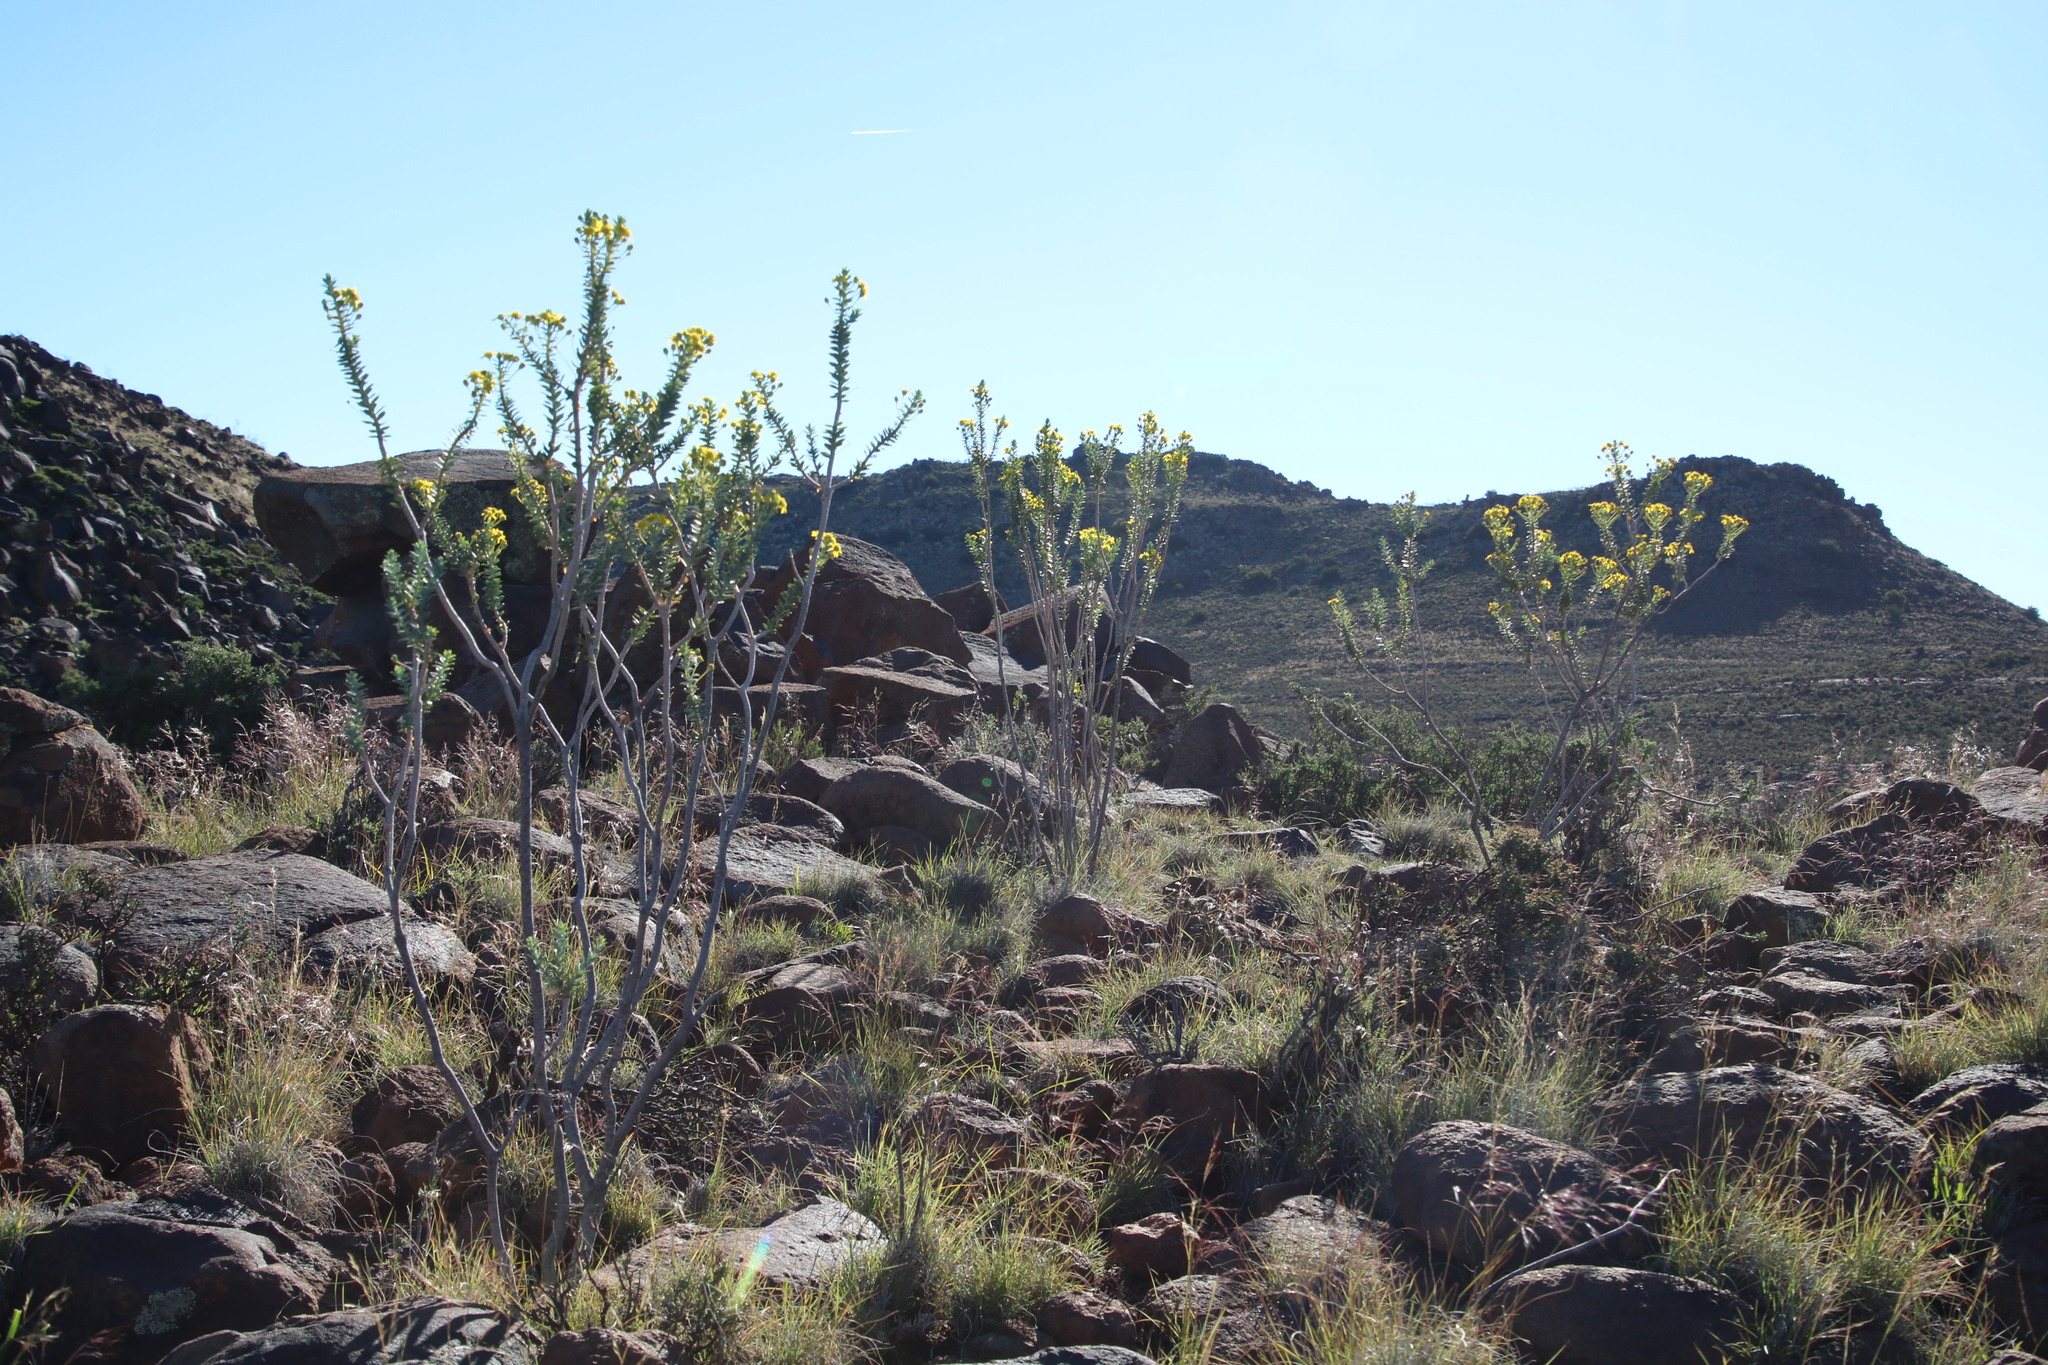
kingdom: Plantae
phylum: Tracheophyta
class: Magnoliopsida
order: Asterales
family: Asteraceae
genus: Euryops
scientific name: Euryops lateriflorus
